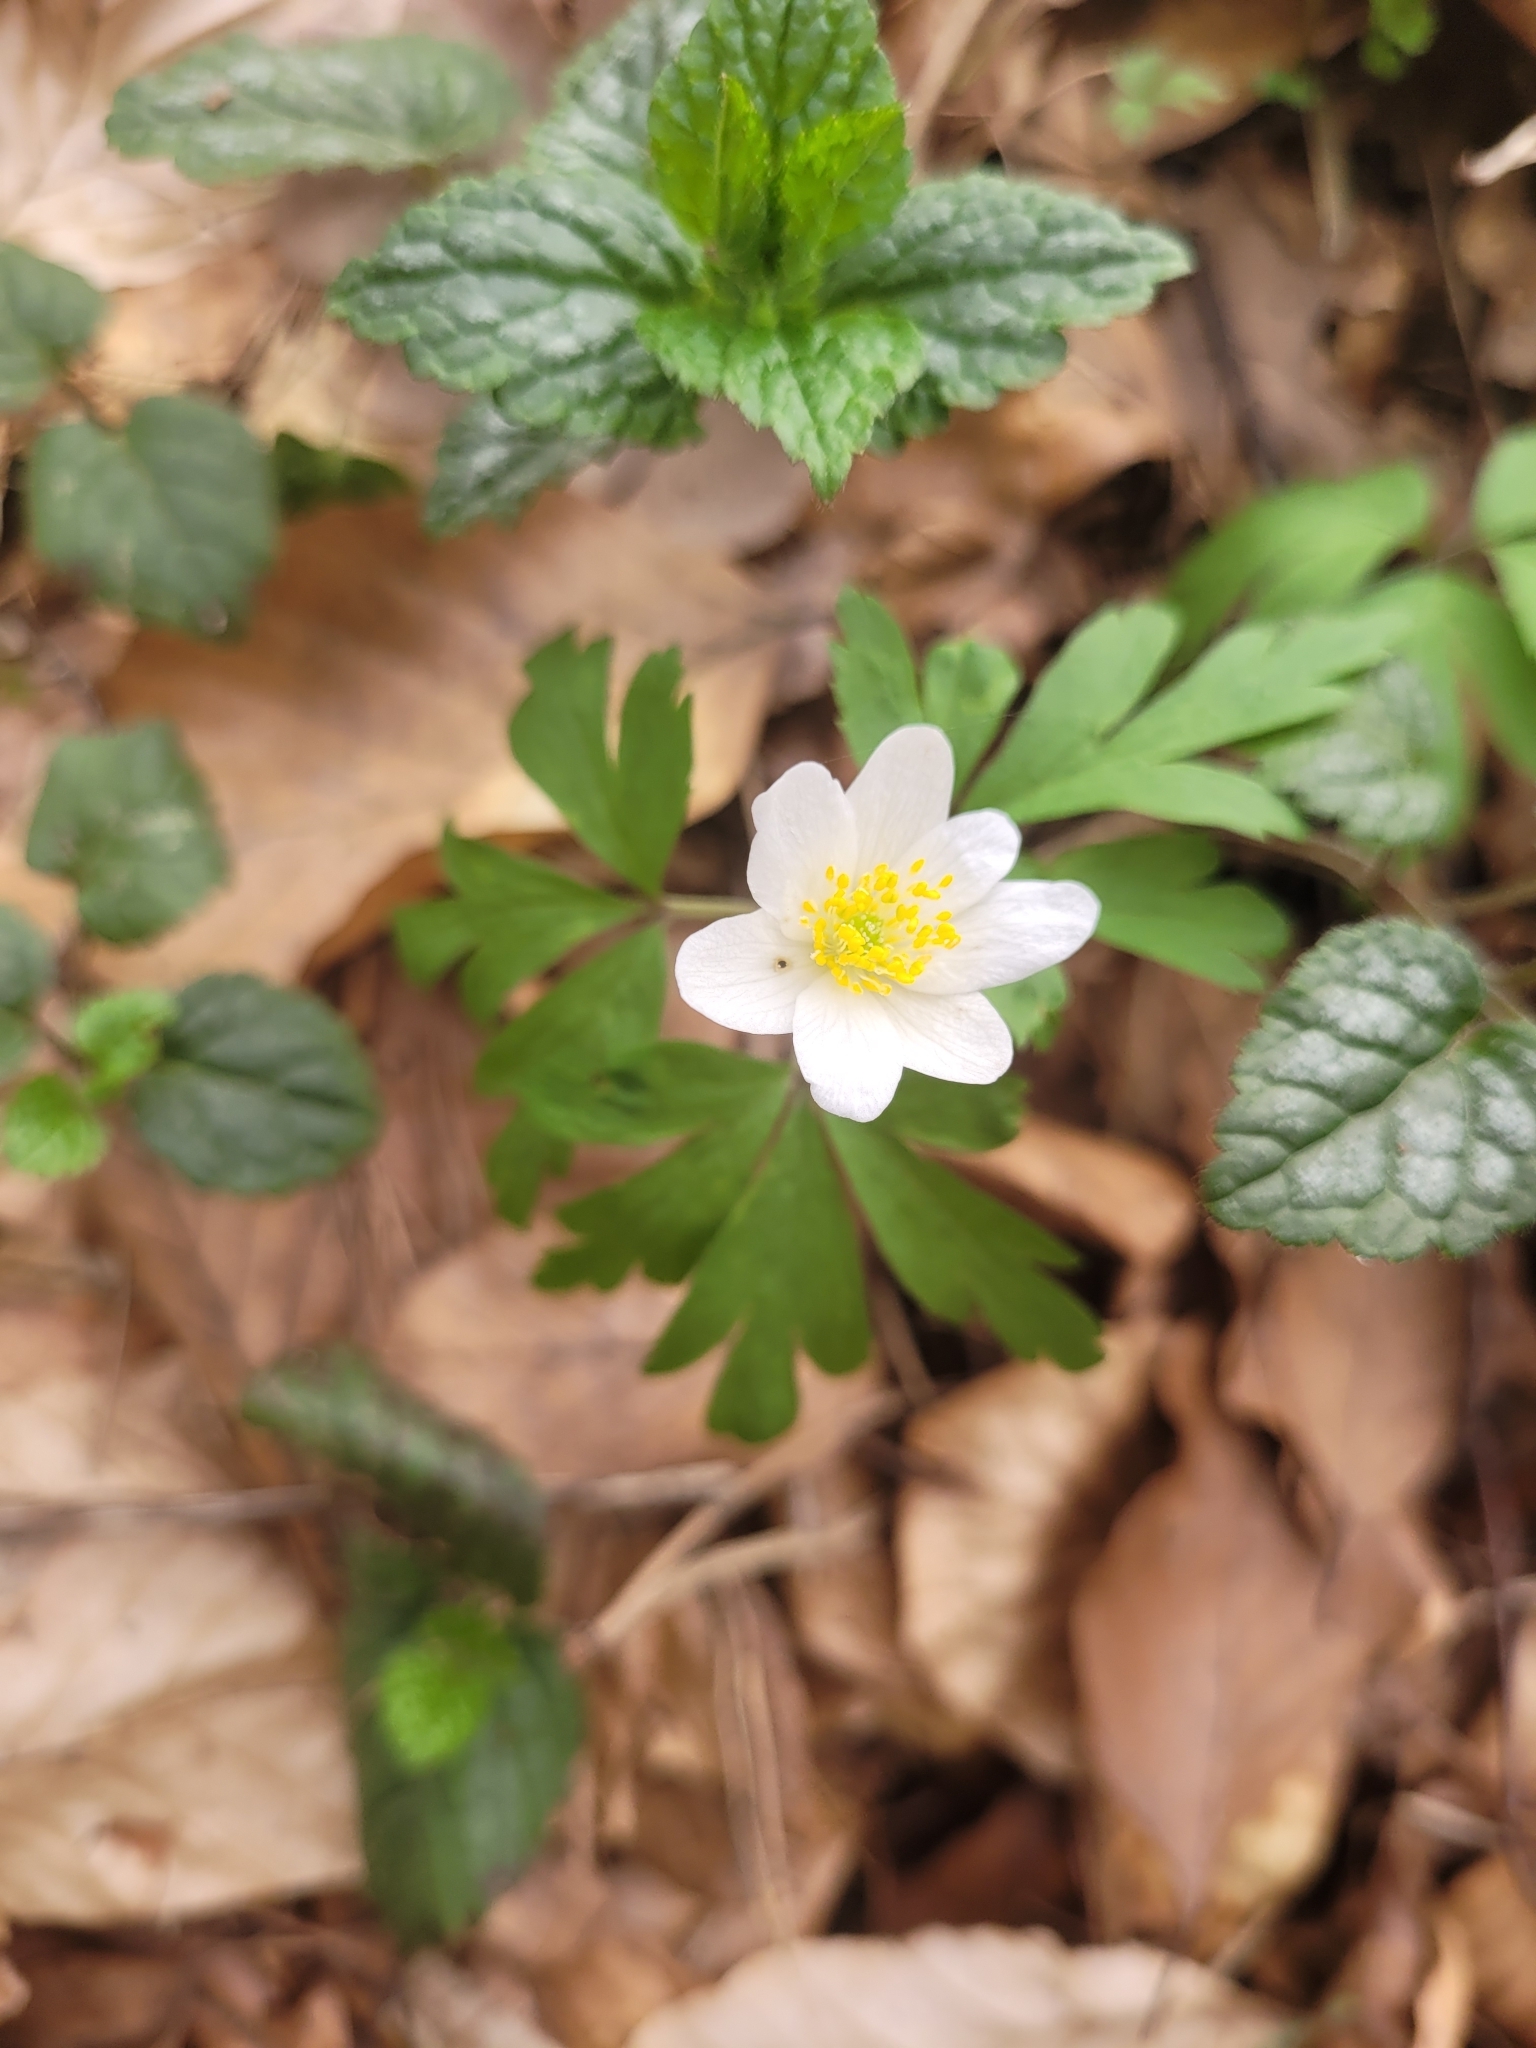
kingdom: Plantae
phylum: Tracheophyta
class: Magnoliopsida
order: Ranunculales
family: Ranunculaceae
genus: Anemone
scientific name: Anemone nemorosa
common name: Wood anemone
